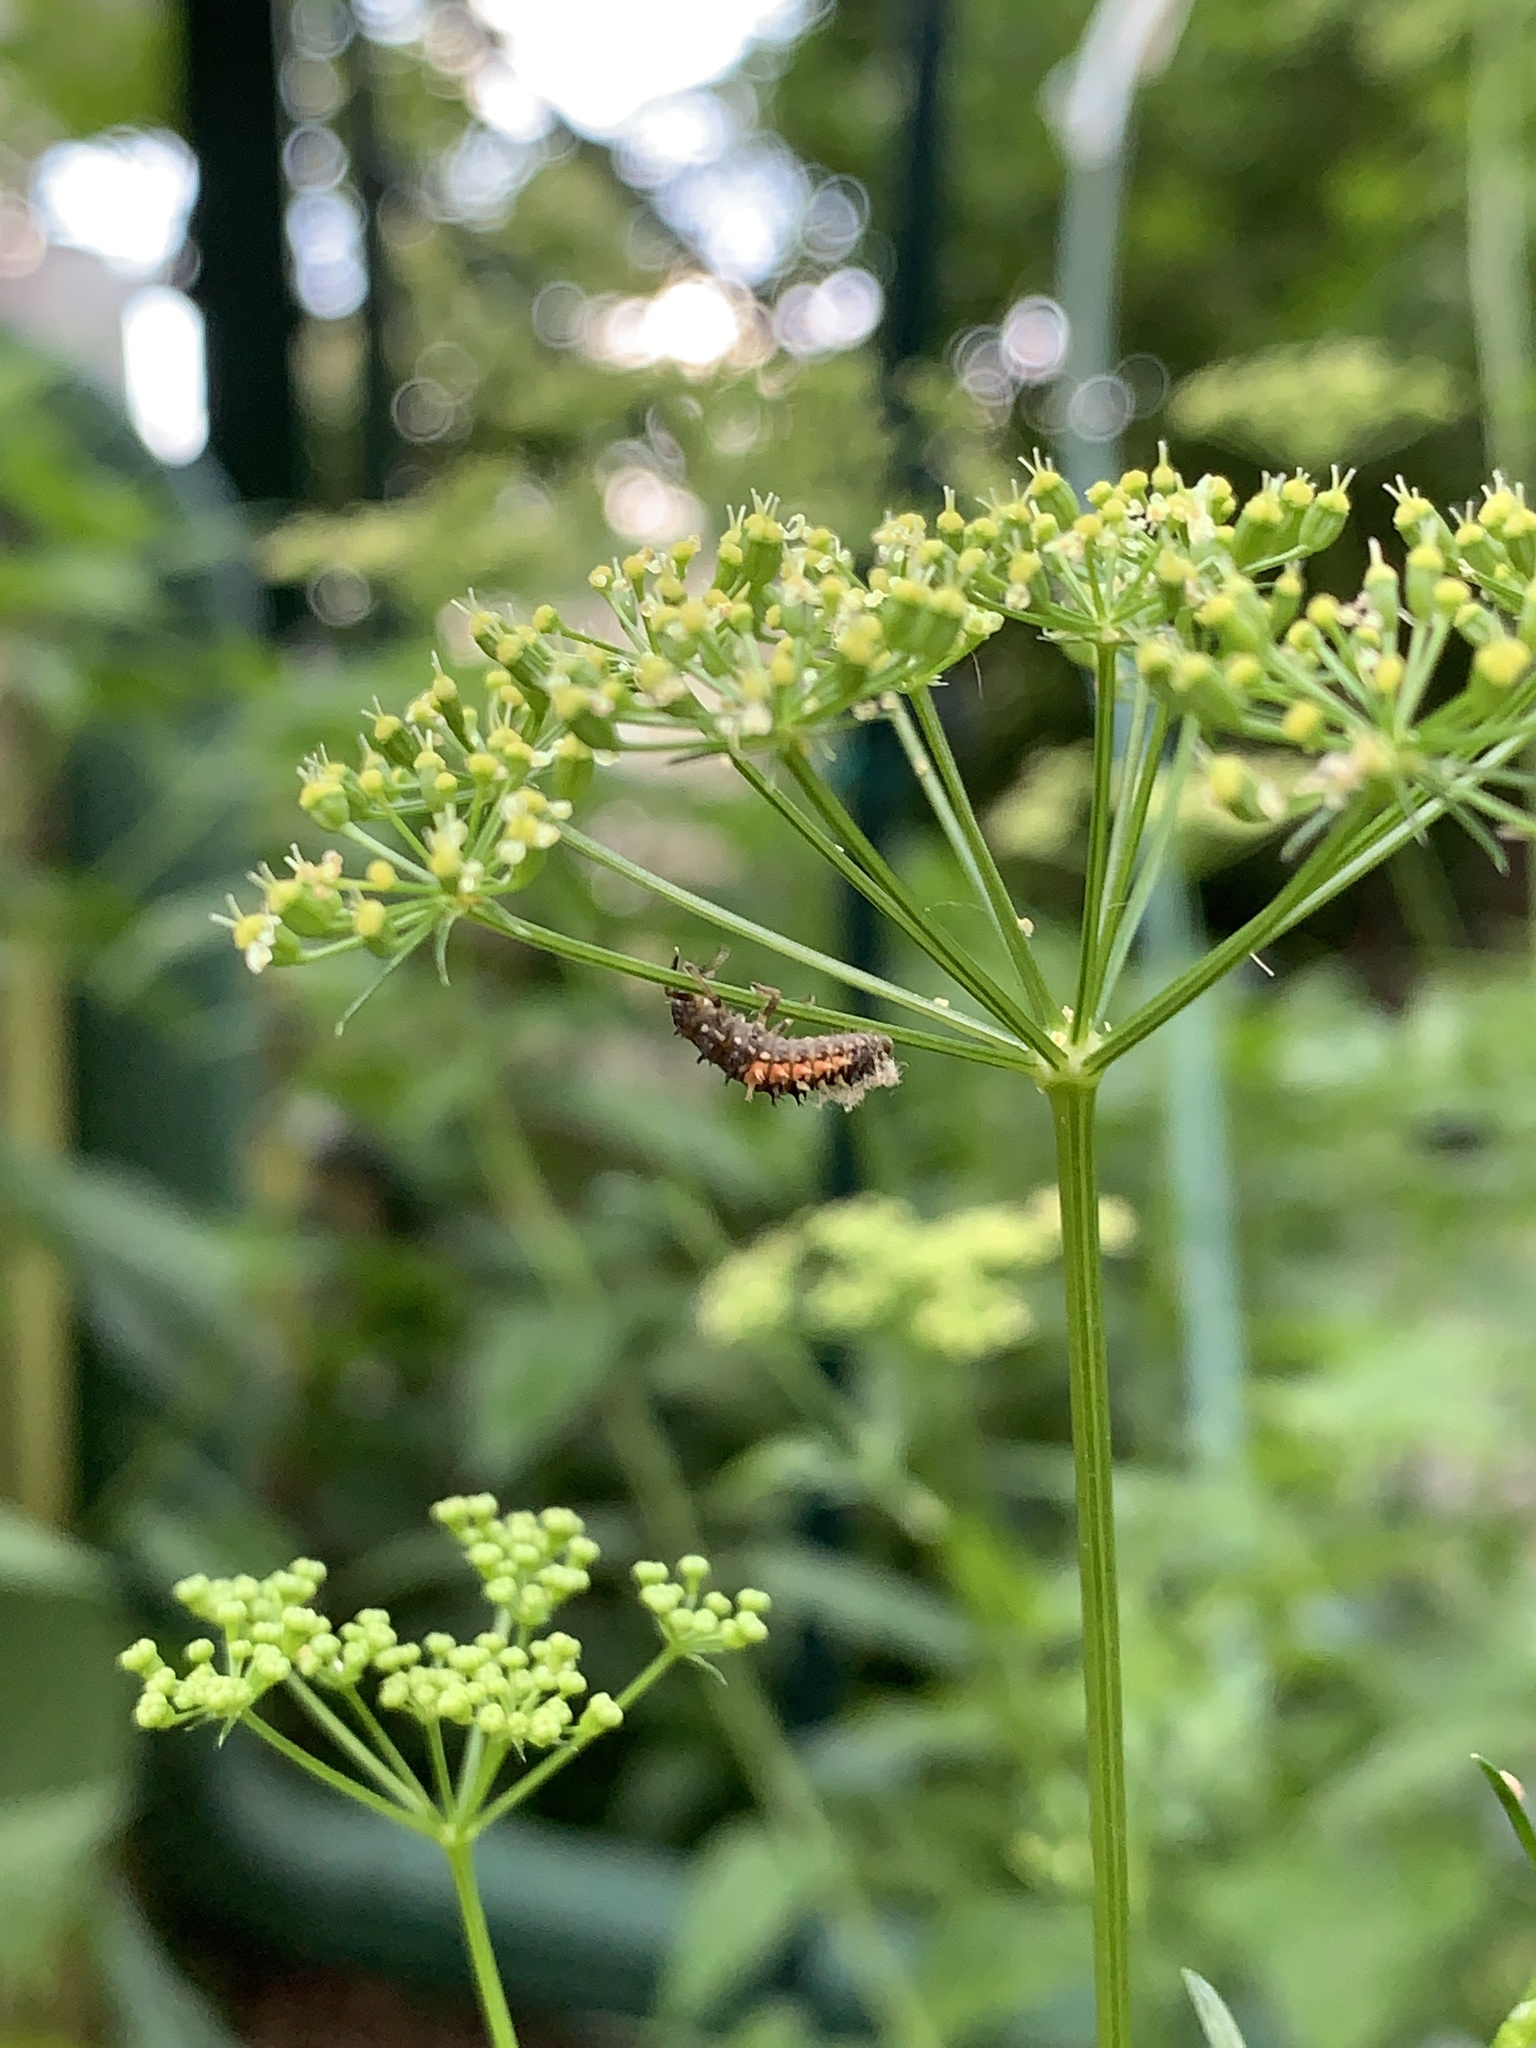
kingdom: Animalia
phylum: Arthropoda
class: Insecta
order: Coleoptera
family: Coccinellidae
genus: Harmonia
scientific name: Harmonia axyridis
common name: Harlequin ladybird
